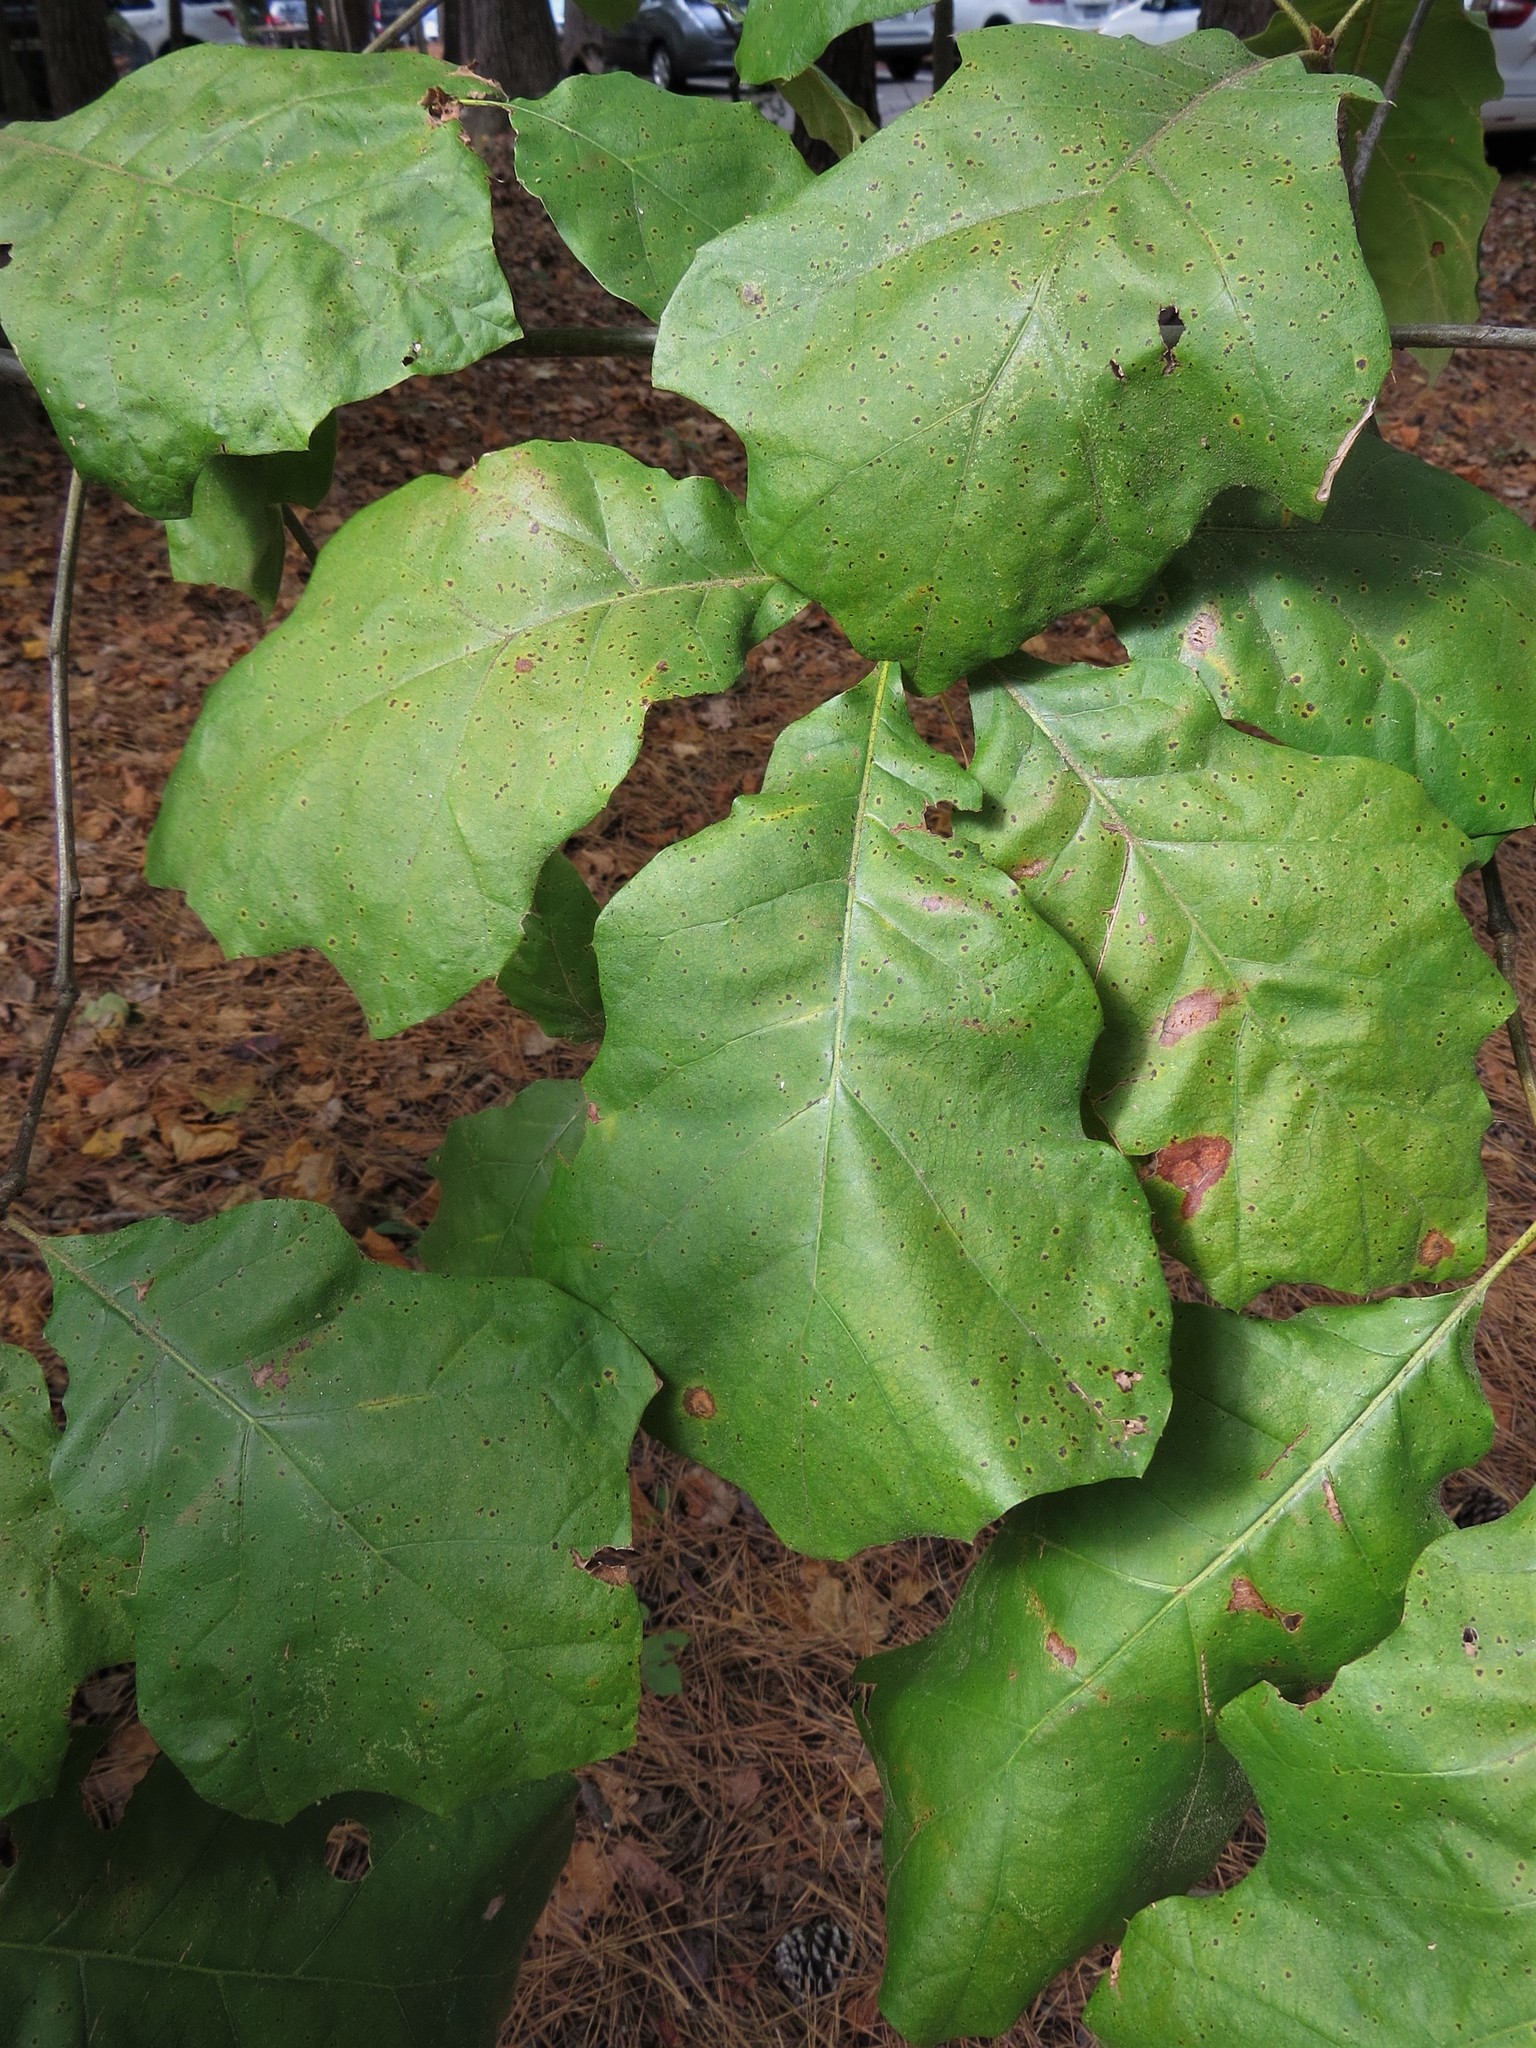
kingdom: Plantae
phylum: Tracheophyta
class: Magnoliopsida
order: Fagales
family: Fagaceae
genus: Quercus
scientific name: Quercus velutina
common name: Black oak
